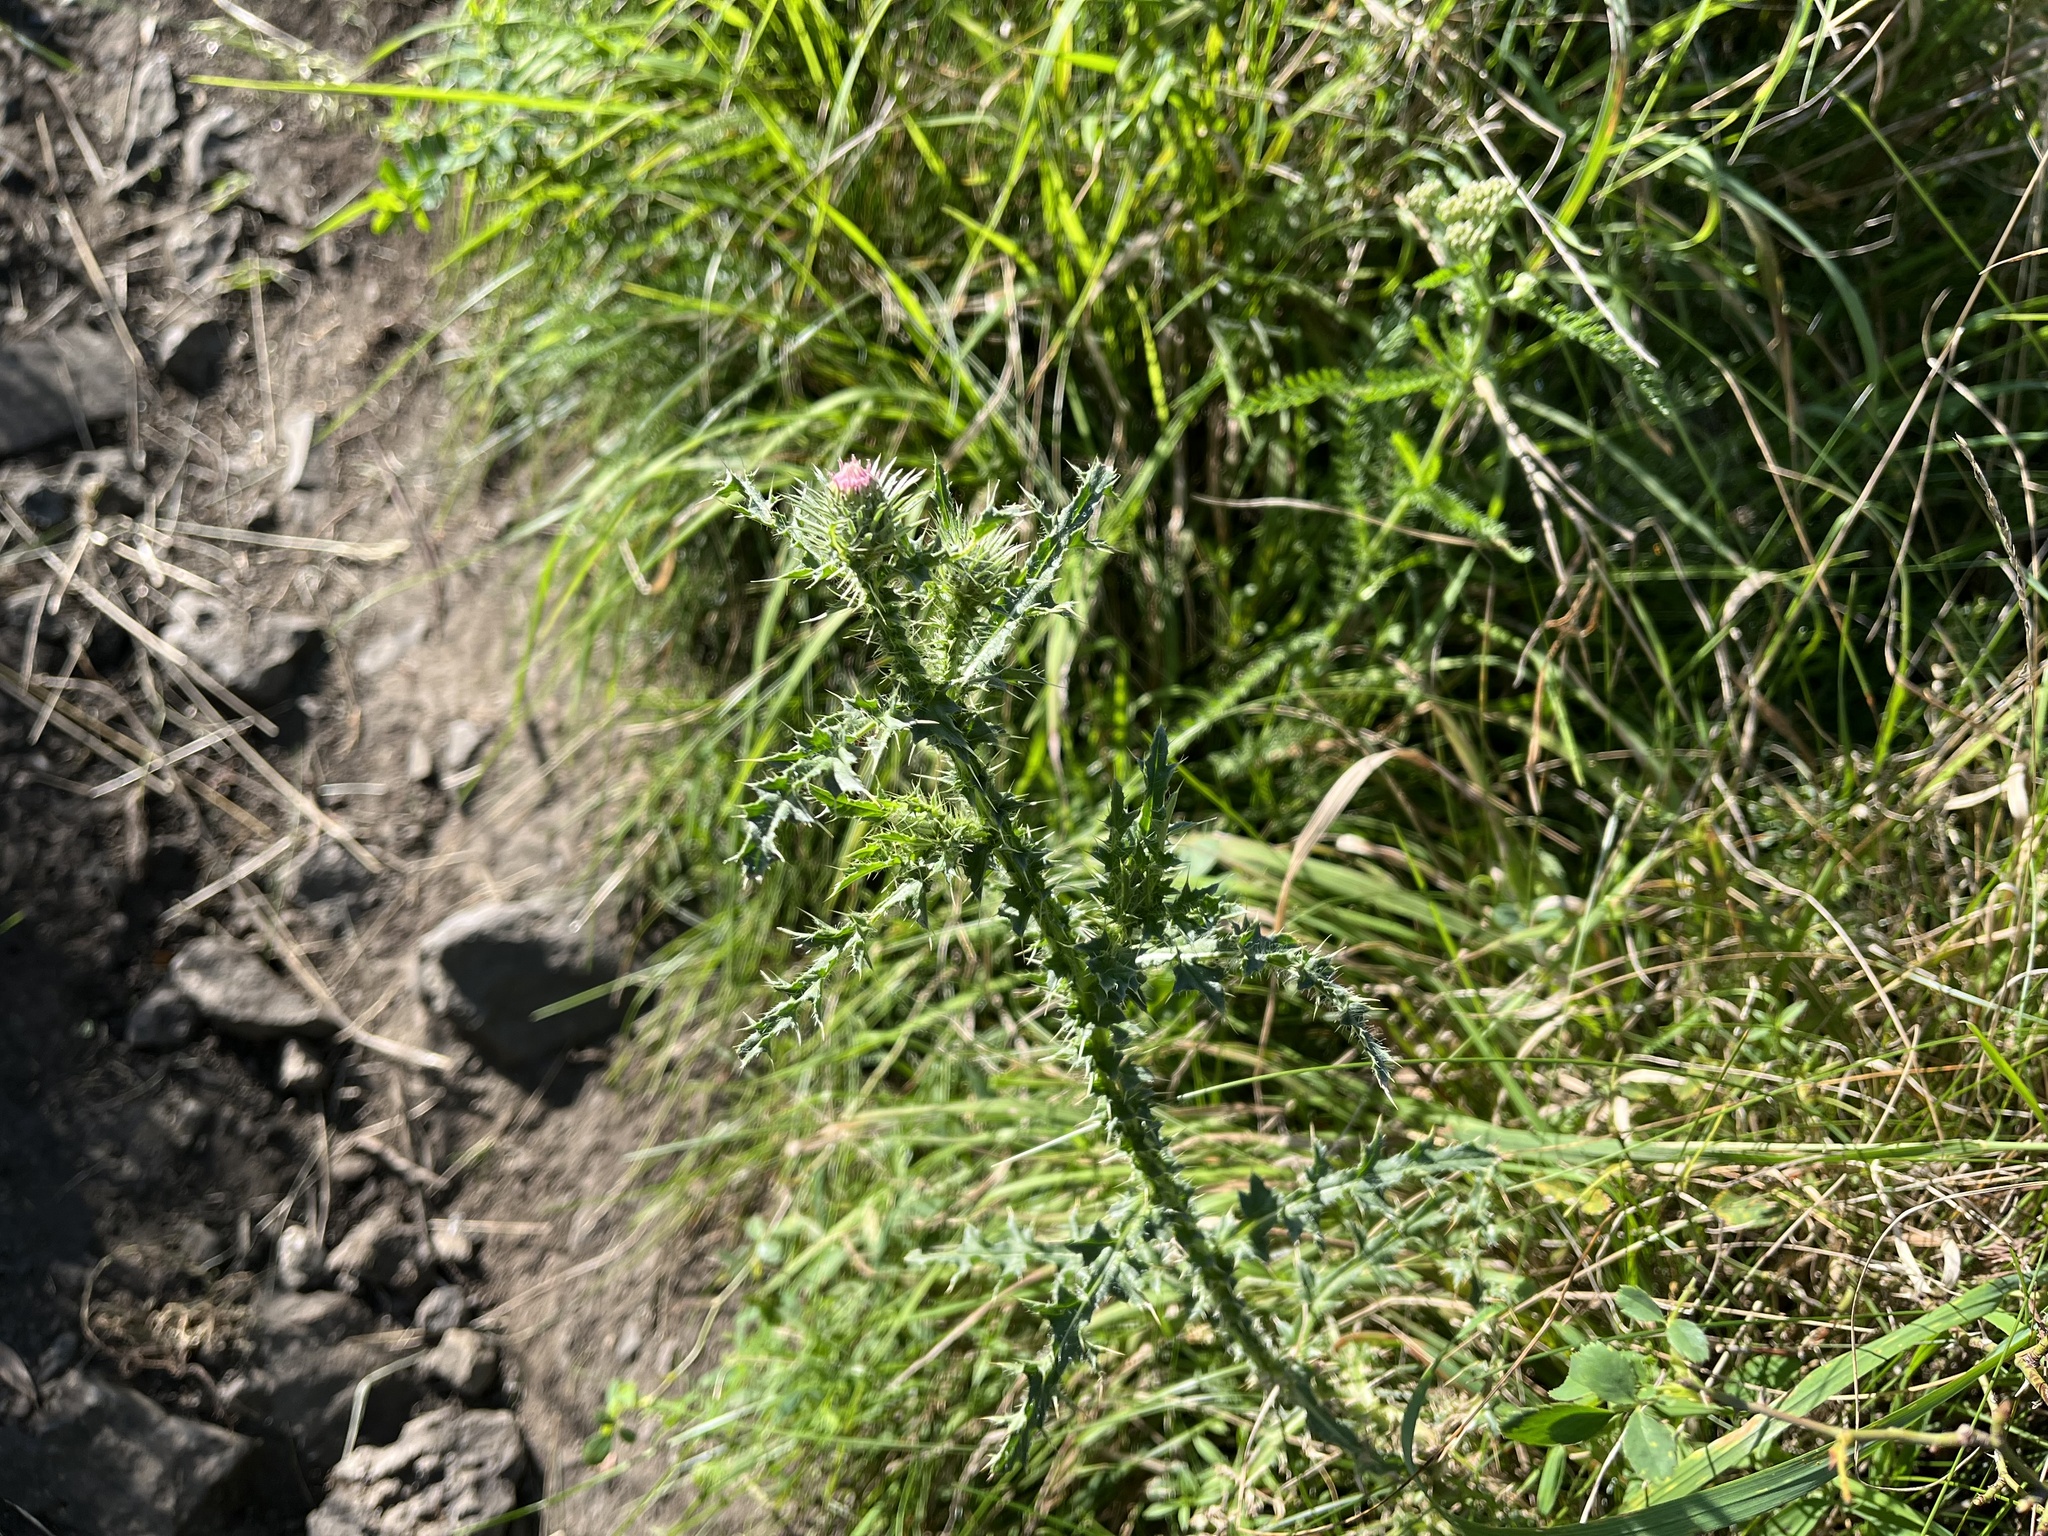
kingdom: Plantae
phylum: Tracheophyta
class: Magnoliopsida
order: Asterales
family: Asteraceae
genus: Carduus
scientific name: Carduus acanthoides
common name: Plumeless thistle
